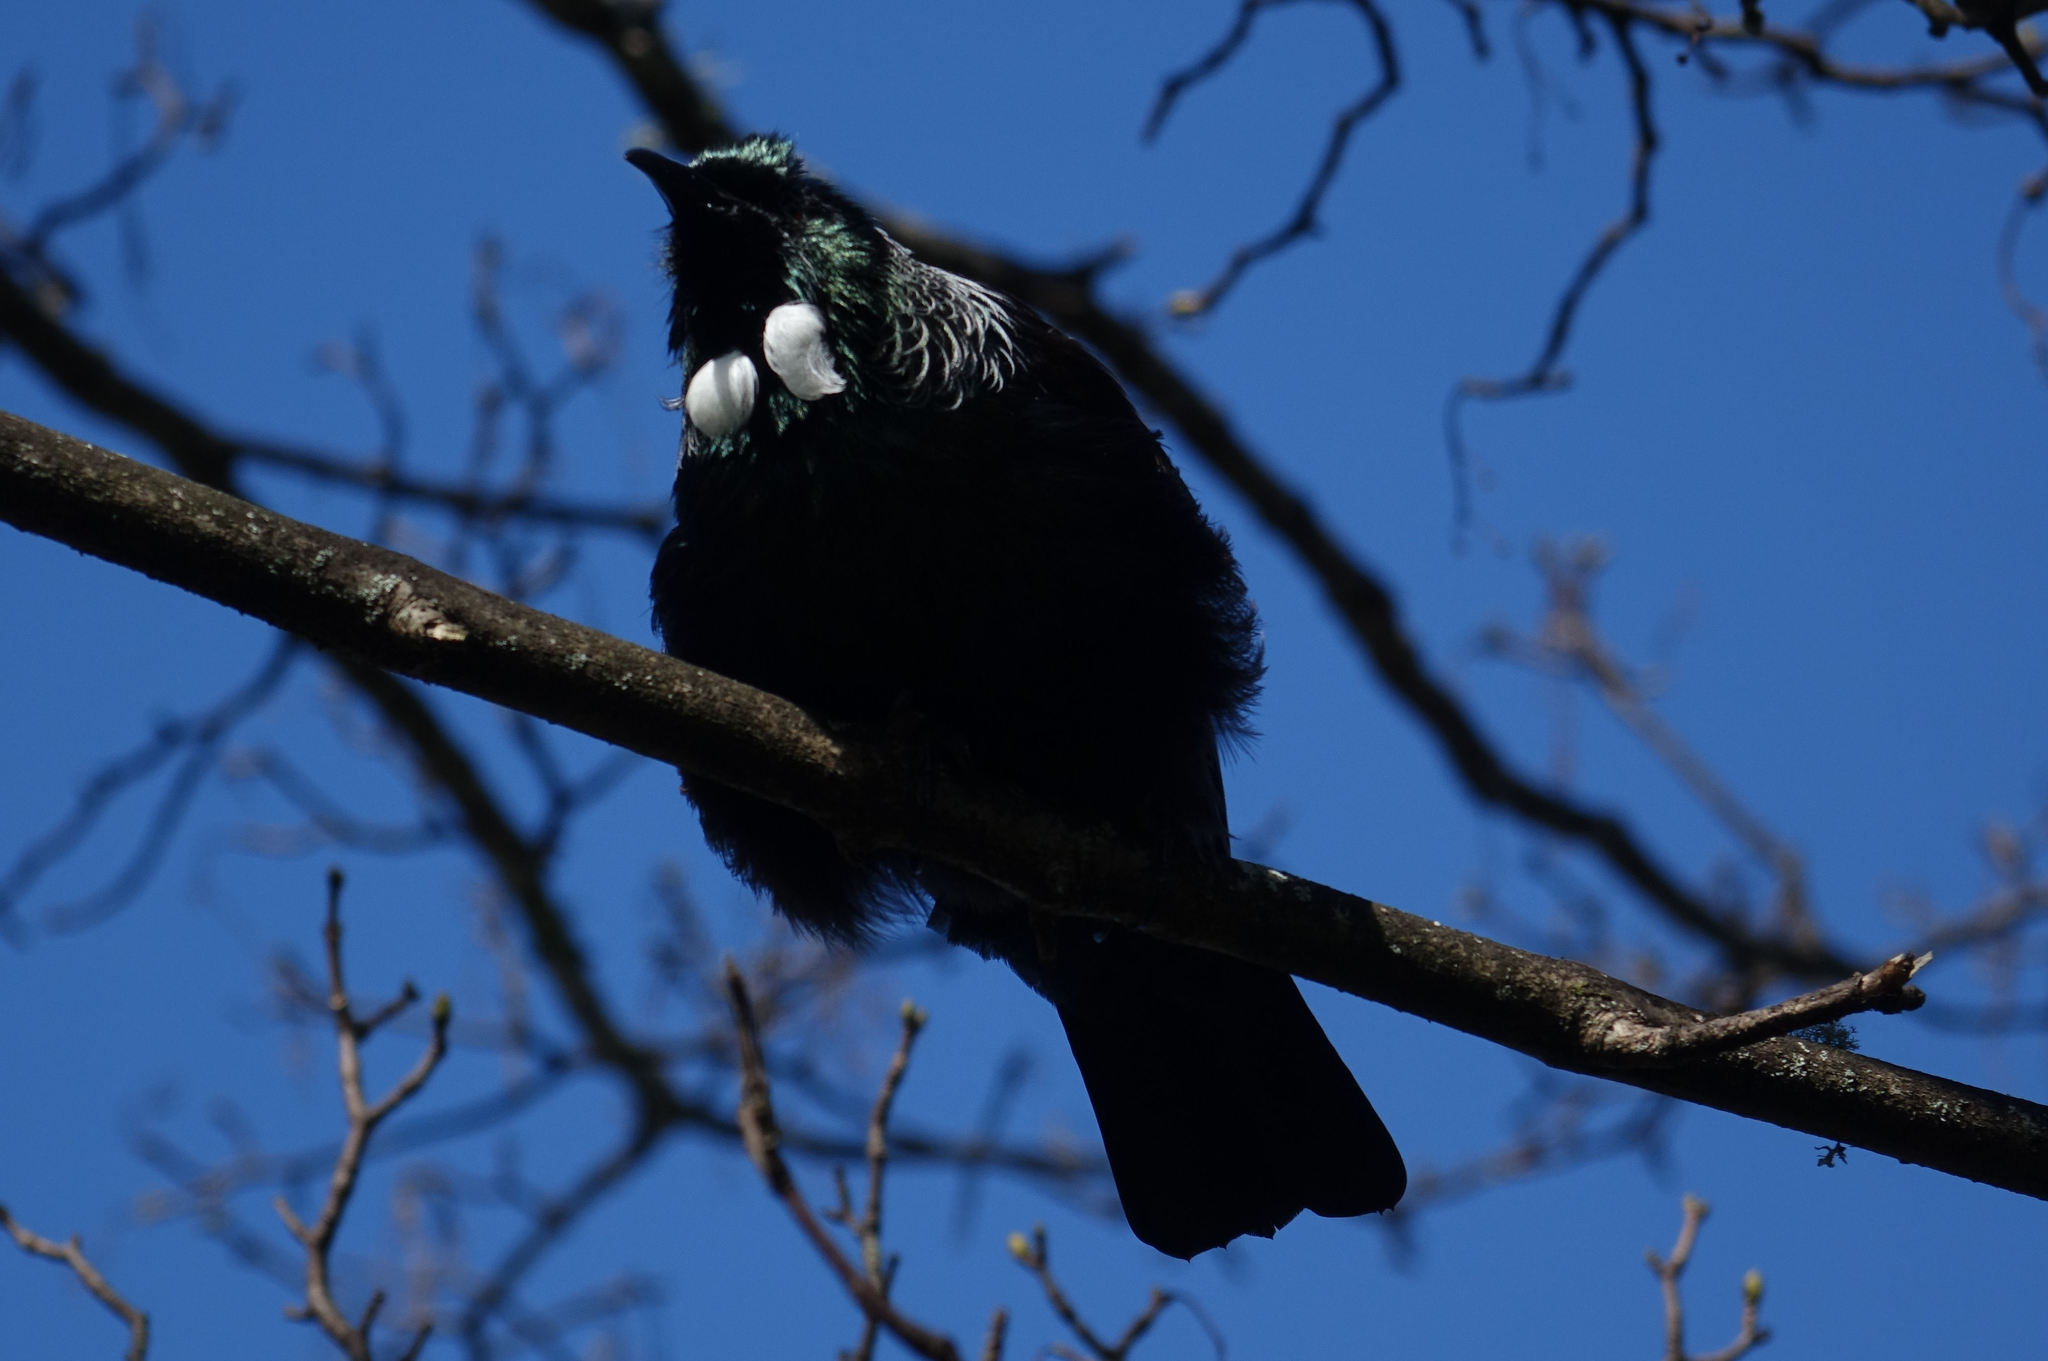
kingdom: Animalia
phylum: Chordata
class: Aves
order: Passeriformes
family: Meliphagidae
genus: Prosthemadera
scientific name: Prosthemadera novaeseelandiae
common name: Tui
